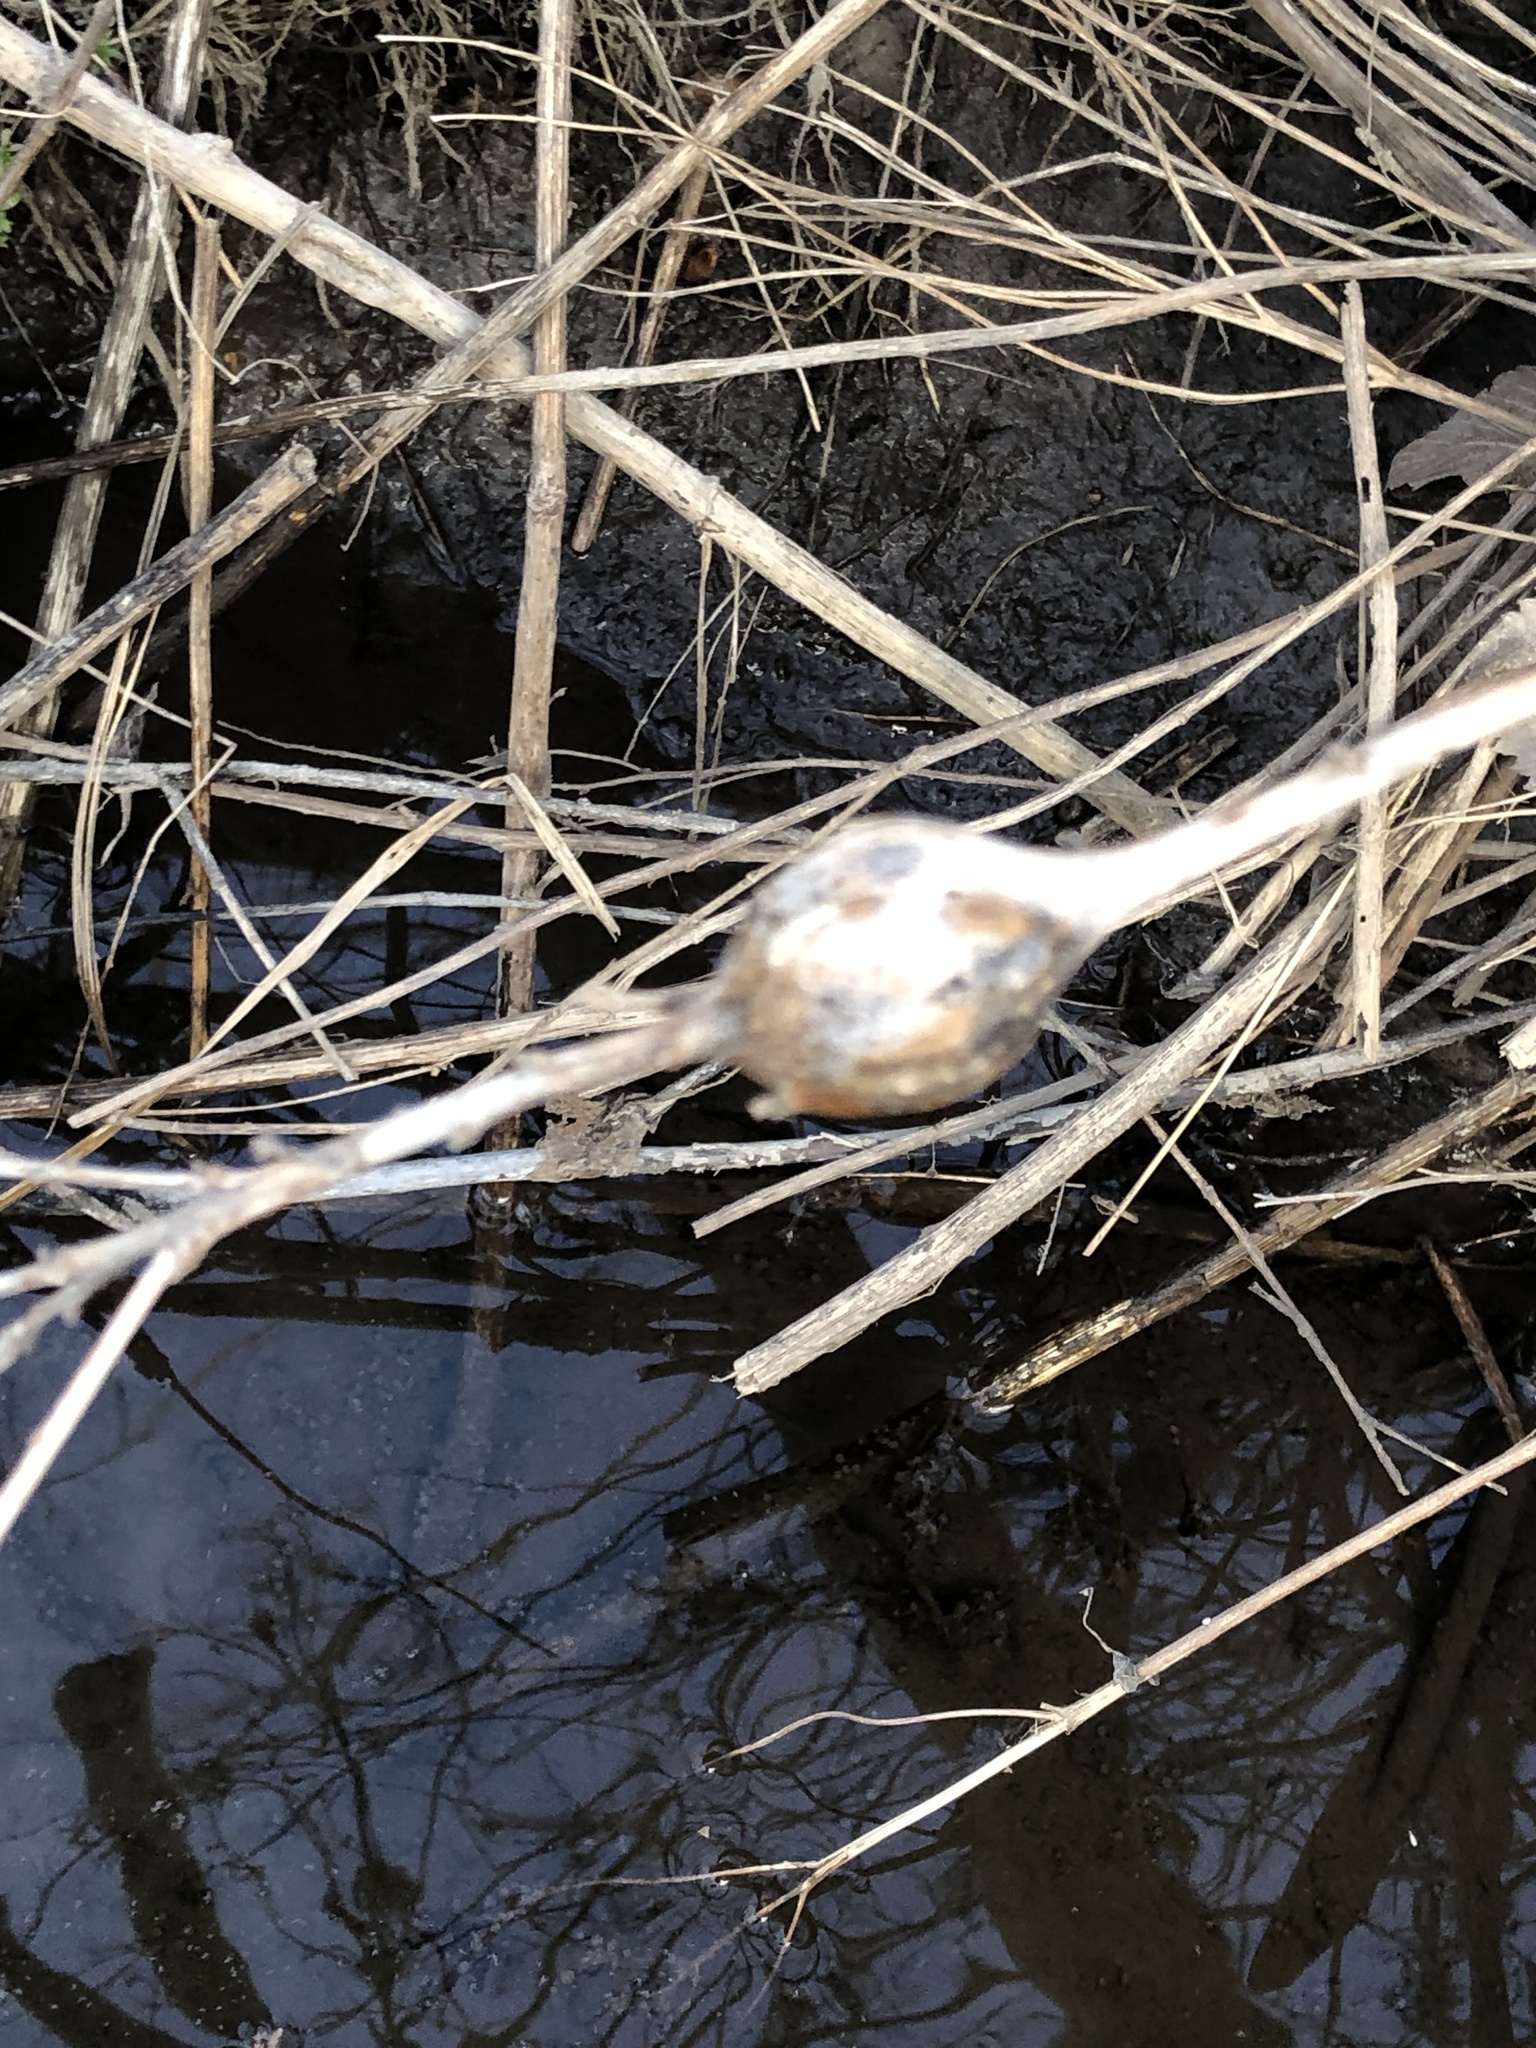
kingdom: Animalia
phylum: Arthropoda
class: Insecta
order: Diptera
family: Tephritidae
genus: Eurosta
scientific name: Eurosta solidaginis
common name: Goldenrod gall fly
